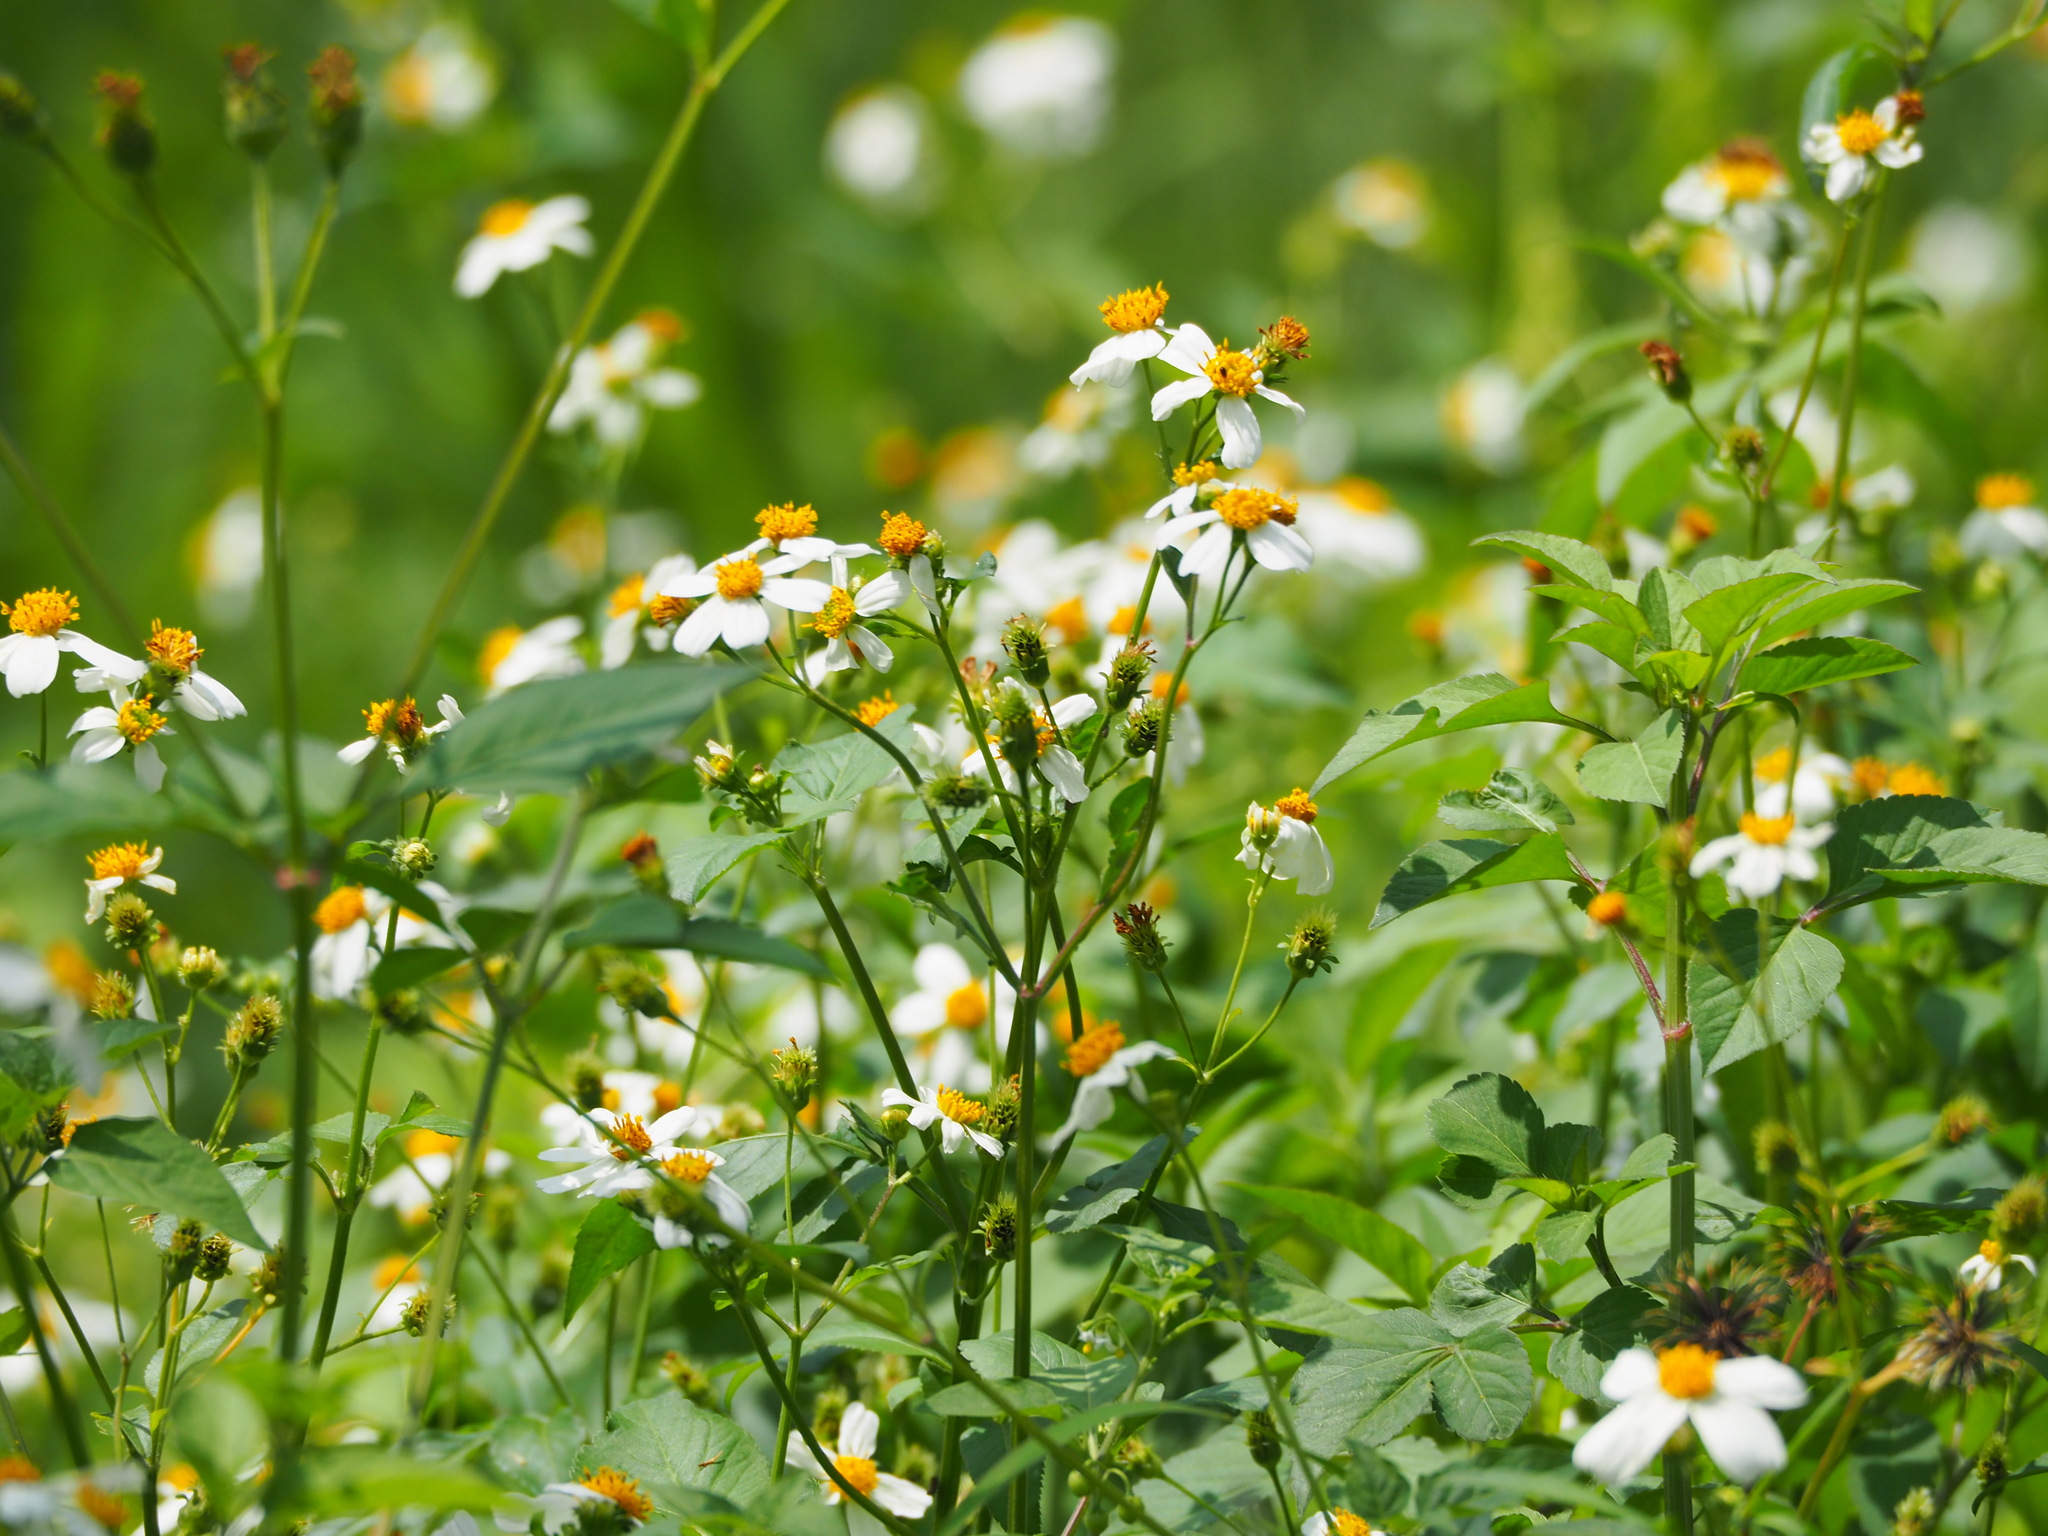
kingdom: Plantae
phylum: Tracheophyta
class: Magnoliopsida
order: Asterales
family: Asteraceae
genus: Bidens
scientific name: Bidens alba
